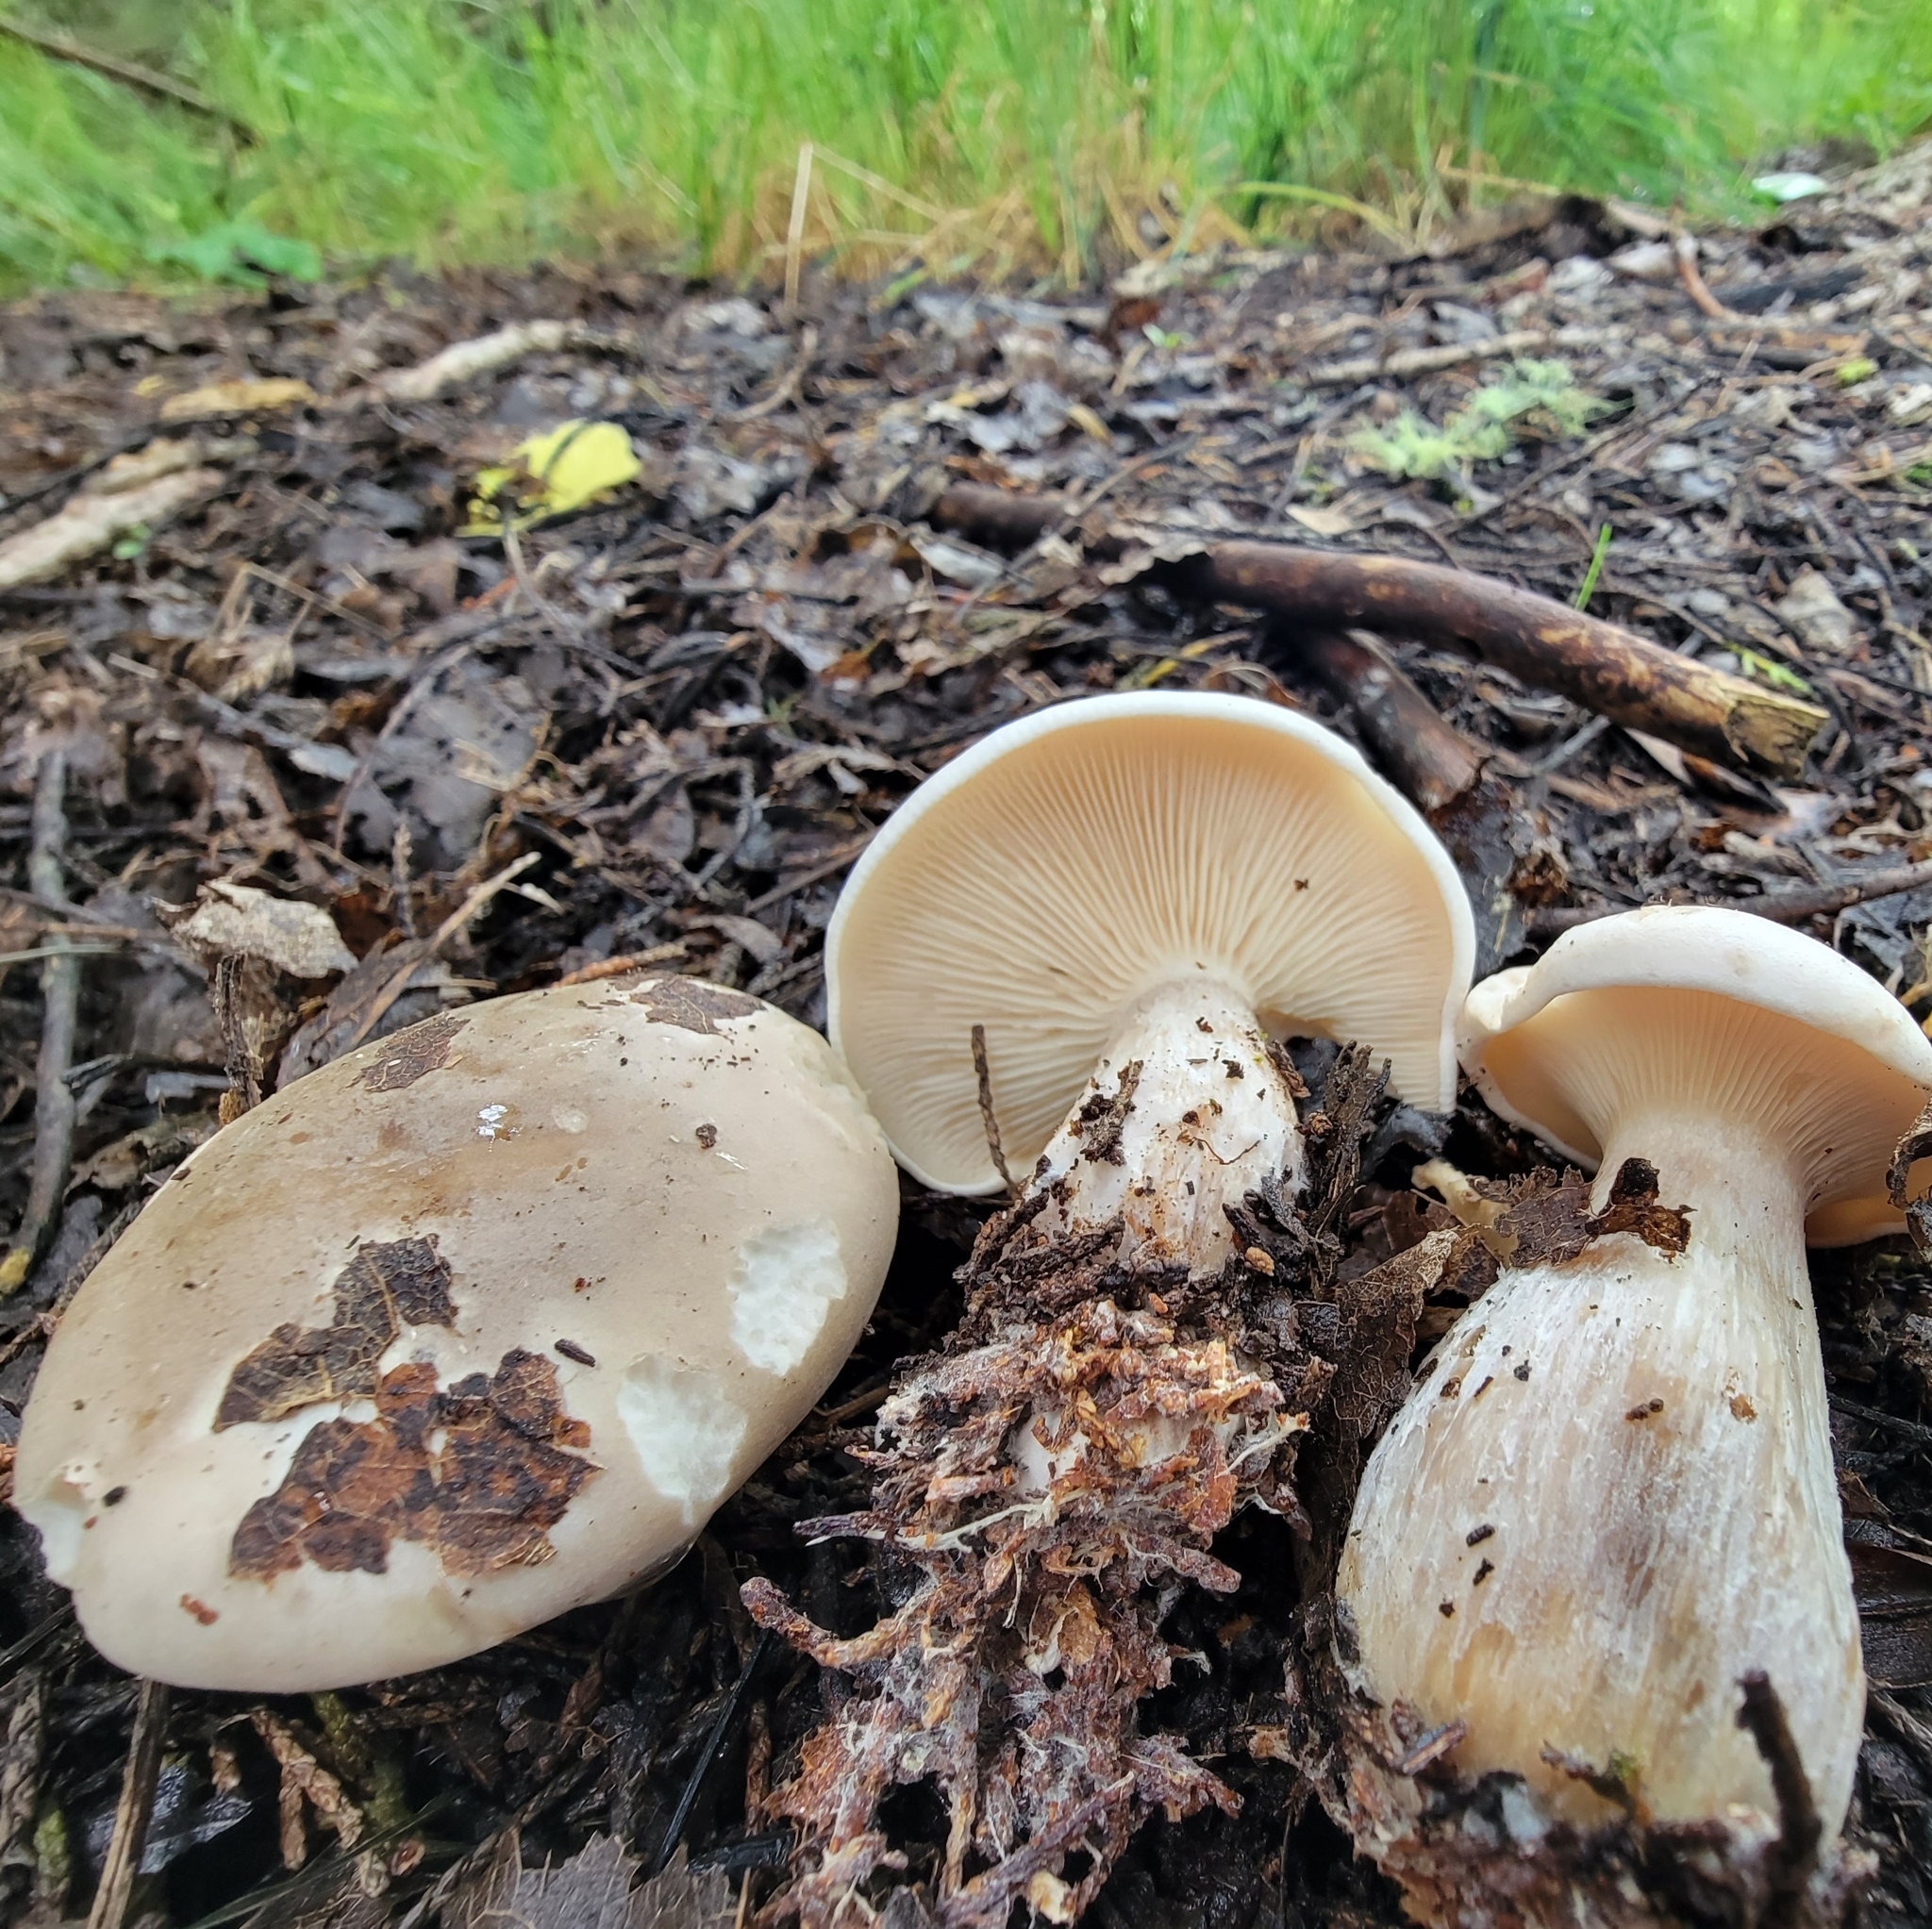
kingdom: Fungi
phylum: Basidiomycota
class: Agaricomycetes
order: Agaricales
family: Tricholomataceae
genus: Clitocybe
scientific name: Clitocybe nebularis
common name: Clouded agaric
